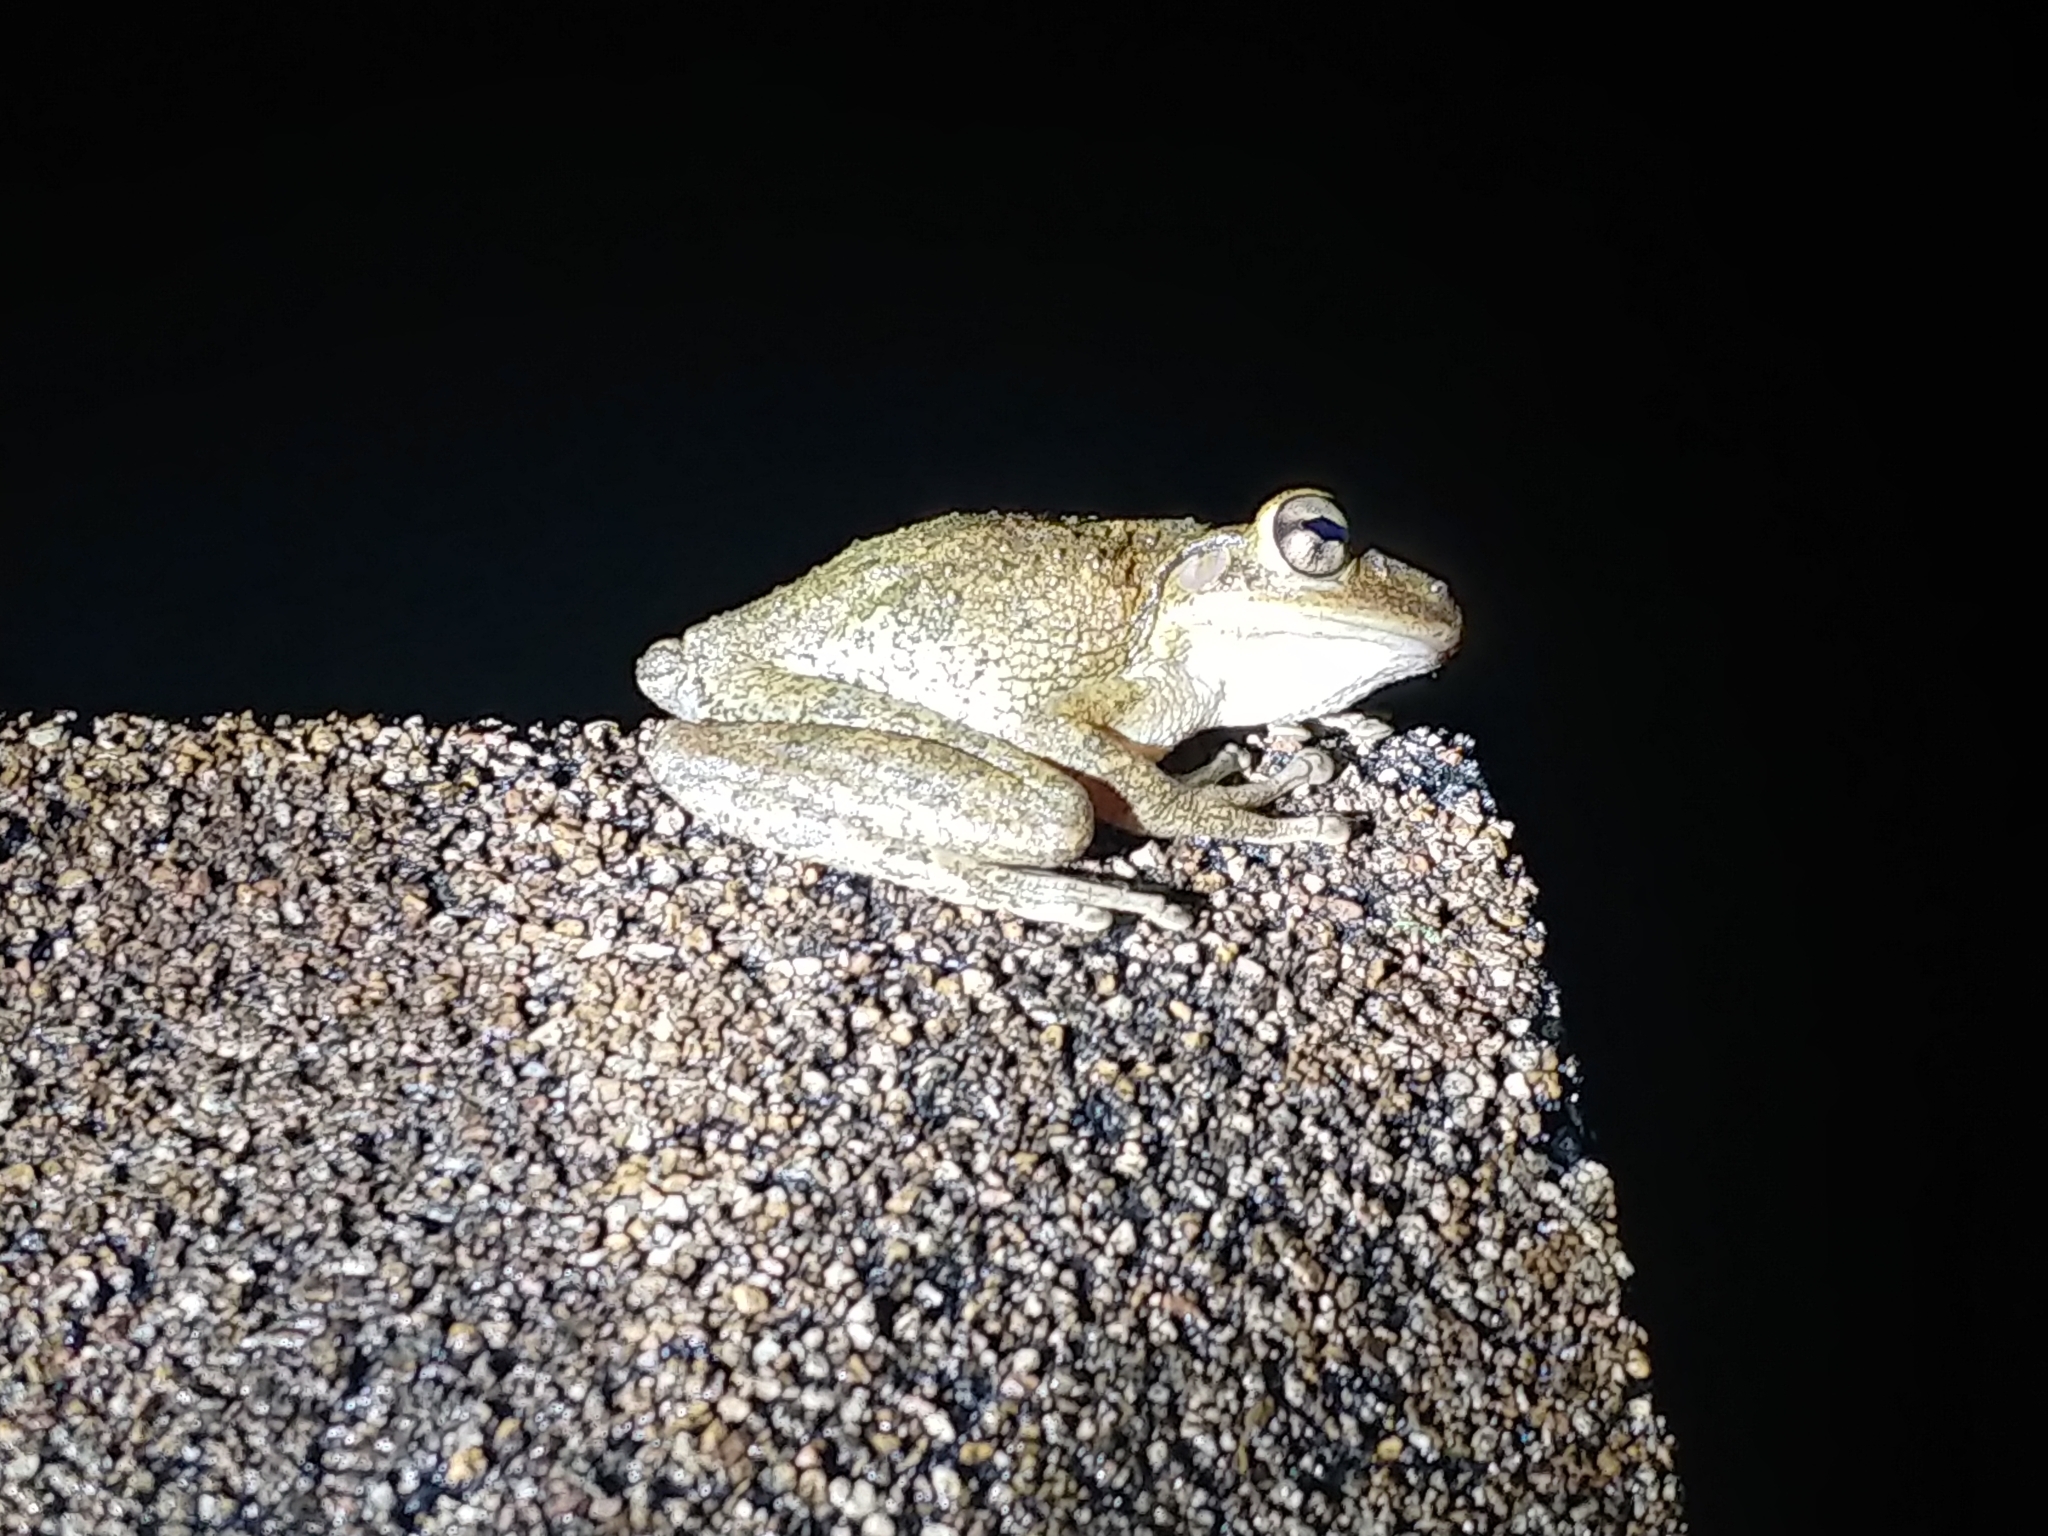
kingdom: Animalia
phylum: Chordata
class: Amphibia
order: Anura
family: Hylidae
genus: Osteopilus
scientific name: Osteopilus septentrionalis
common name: Cuban treefrog
